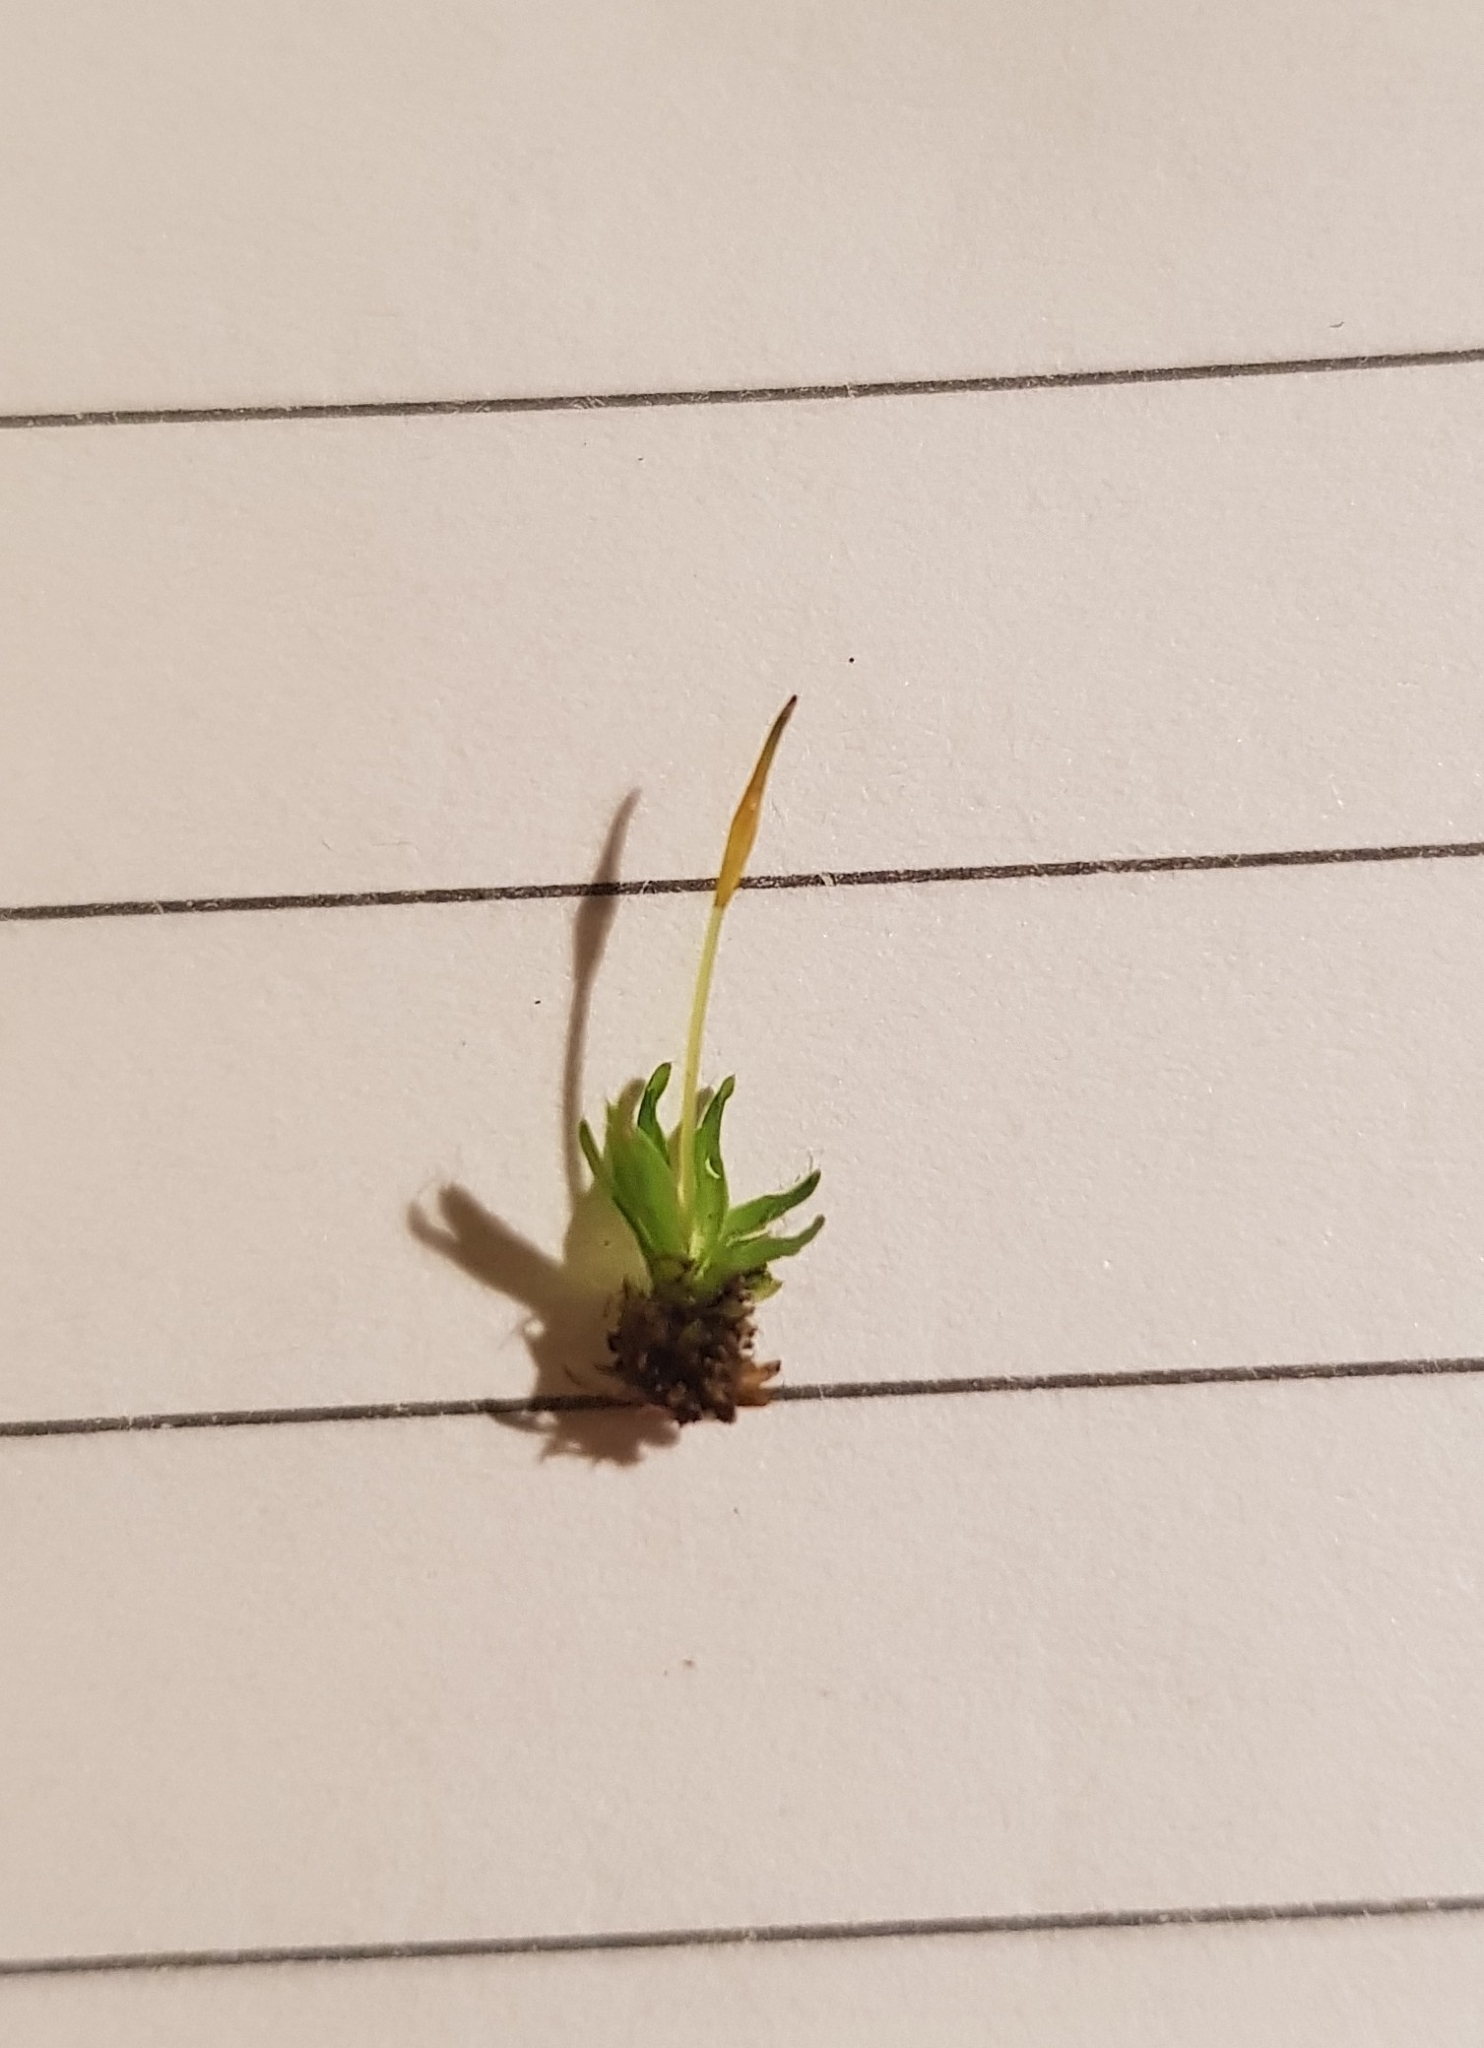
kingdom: Plantae
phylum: Bryophyta
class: Bryopsida
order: Pottiales
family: Pottiaceae
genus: Tortula
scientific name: Tortula muralis
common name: Wall screw-moss
